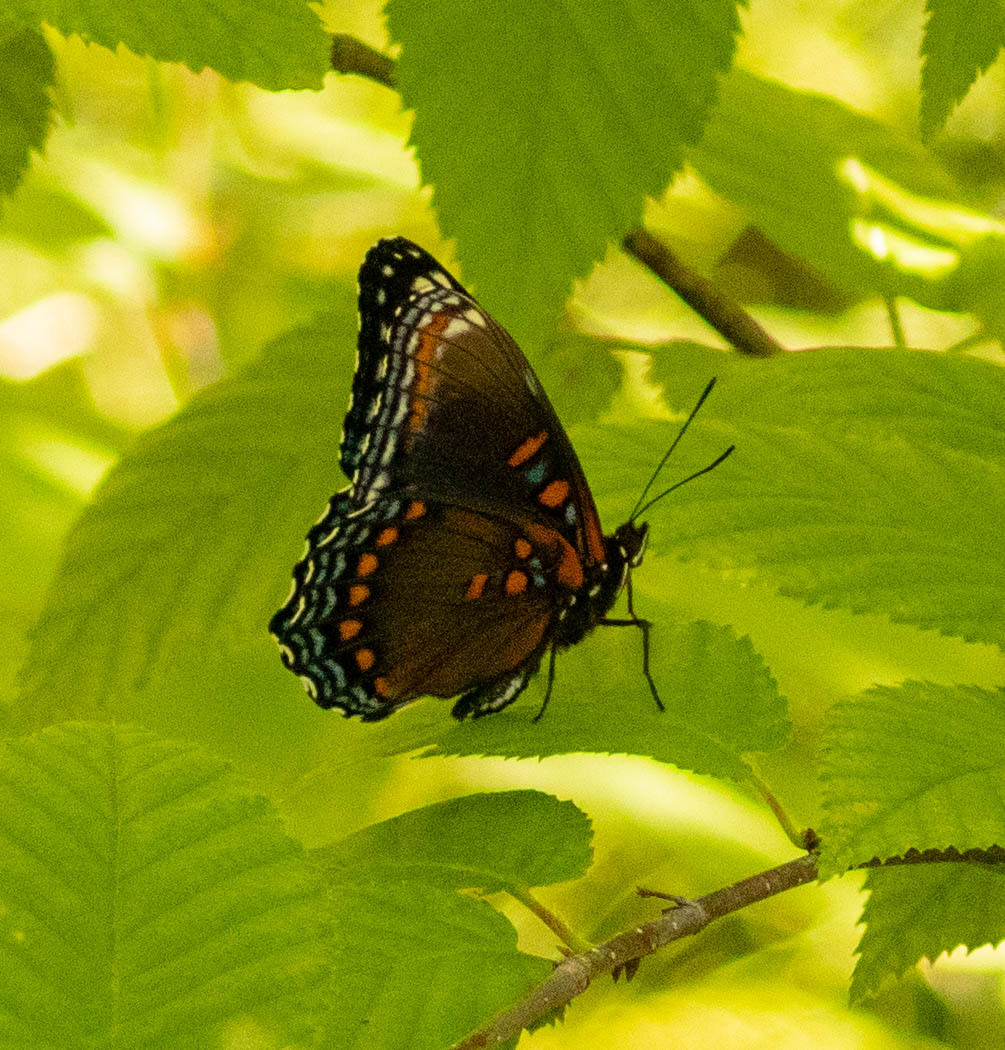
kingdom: Animalia
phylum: Arthropoda
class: Insecta
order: Lepidoptera
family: Nymphalidae
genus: Limenitis
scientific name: Limenitis astyanax
